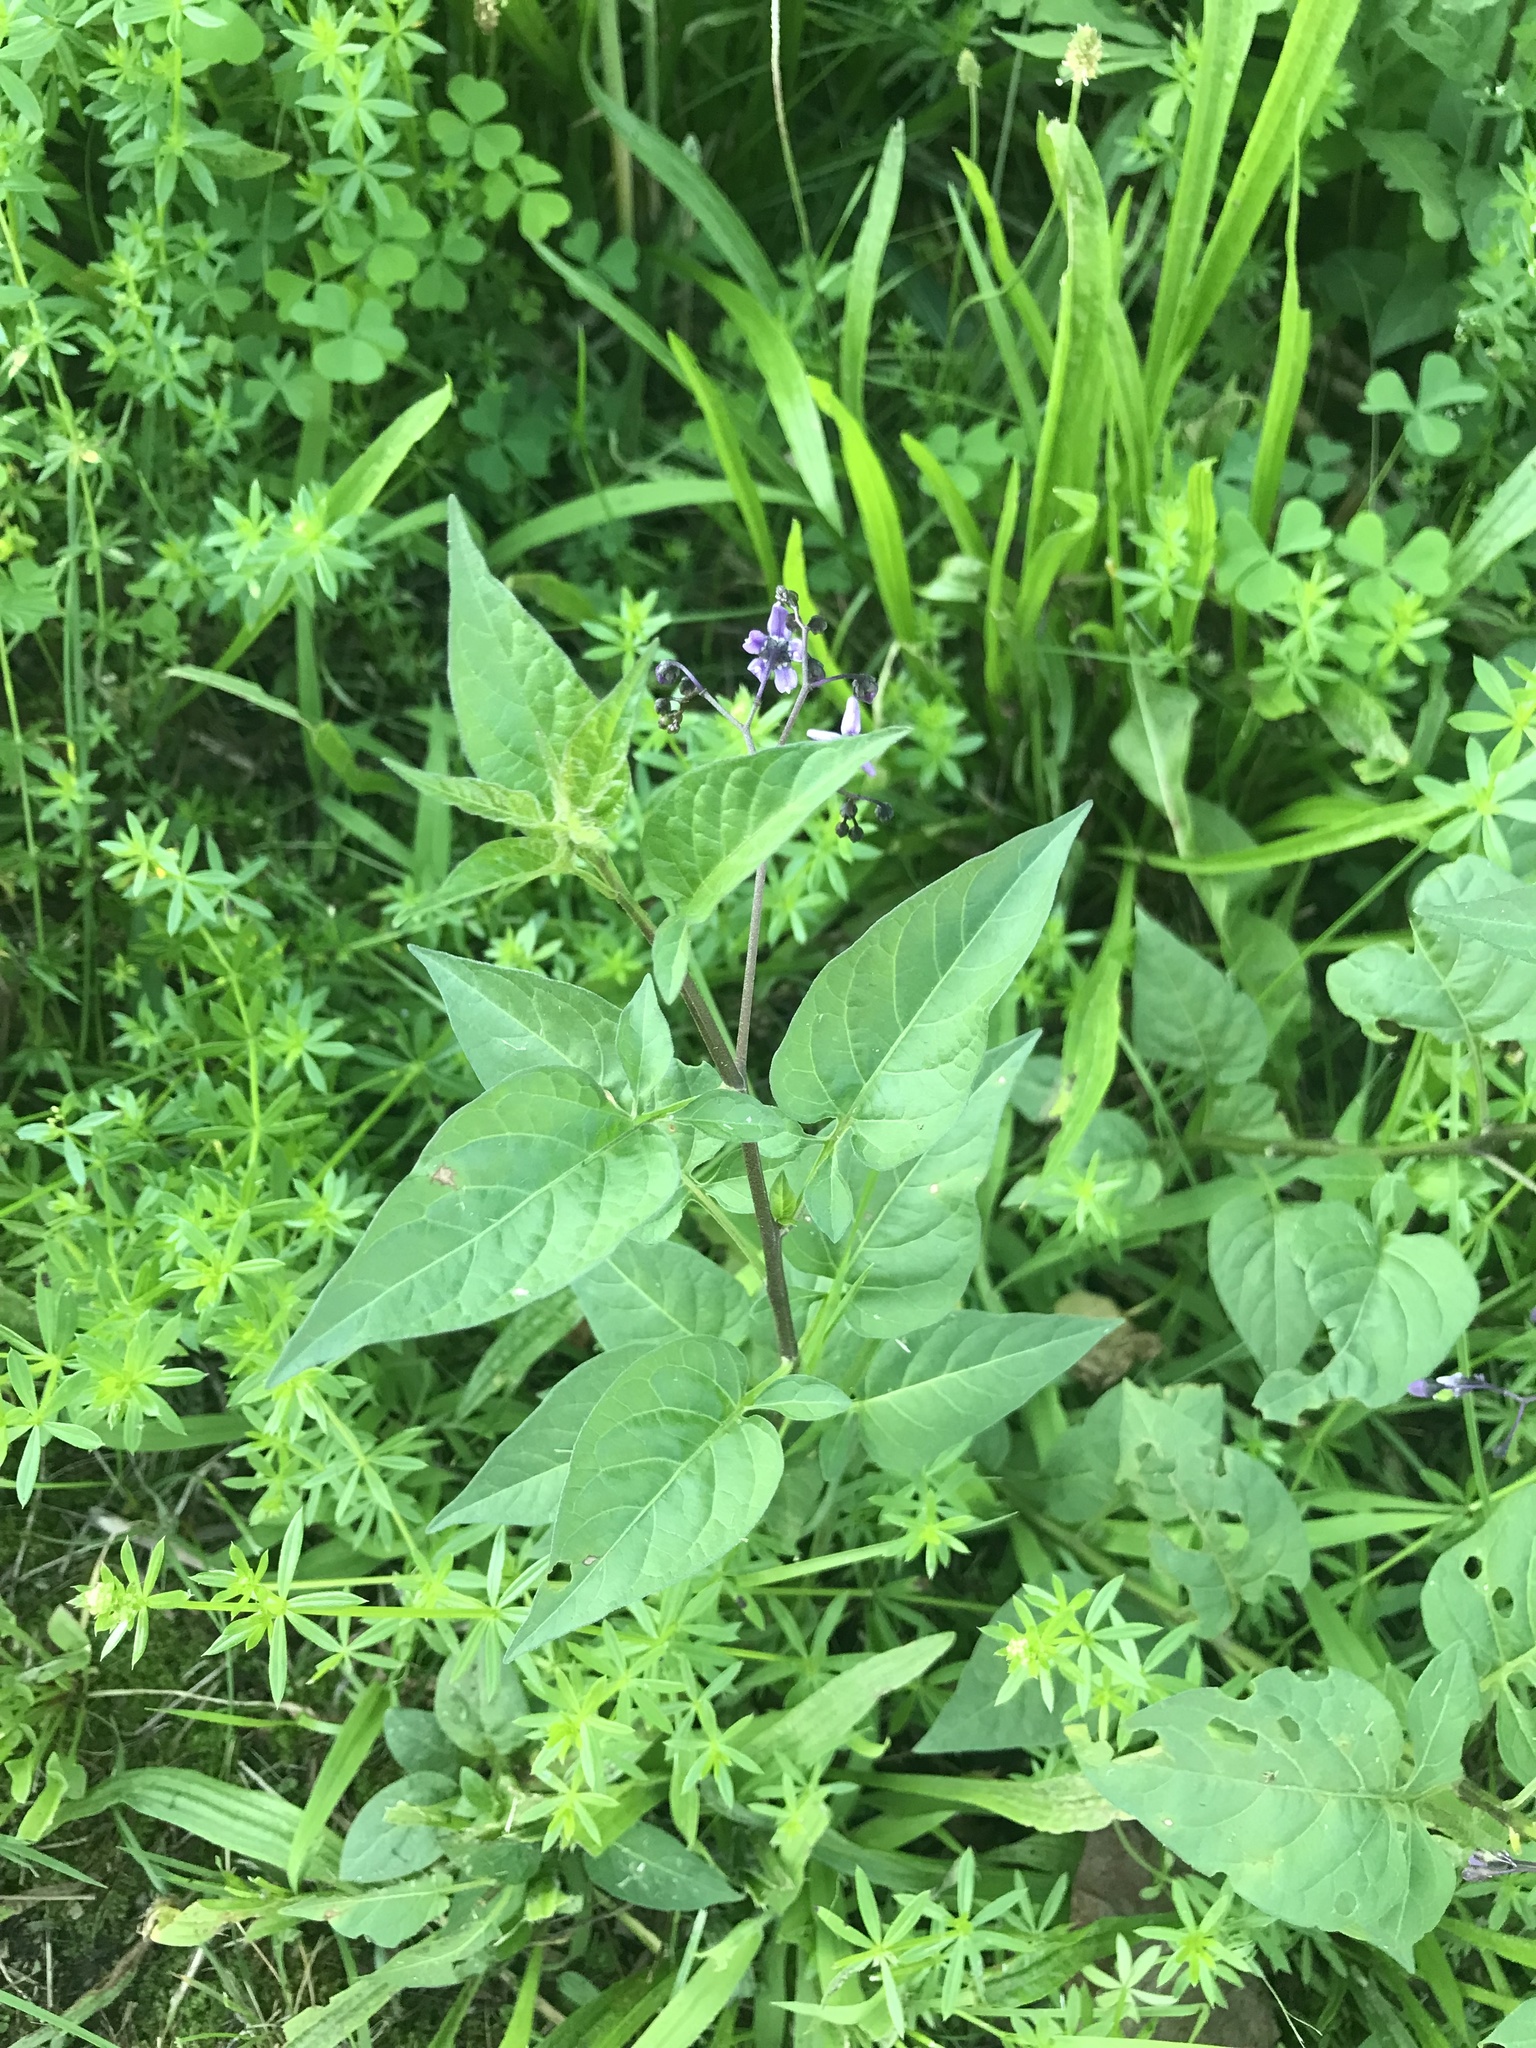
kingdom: Plantae
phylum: Tracheophyta
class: Magnoliopsida
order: Solanales
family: Solanaceae
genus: Solanum
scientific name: Solanum dulcamara
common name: Climbing nightshade
